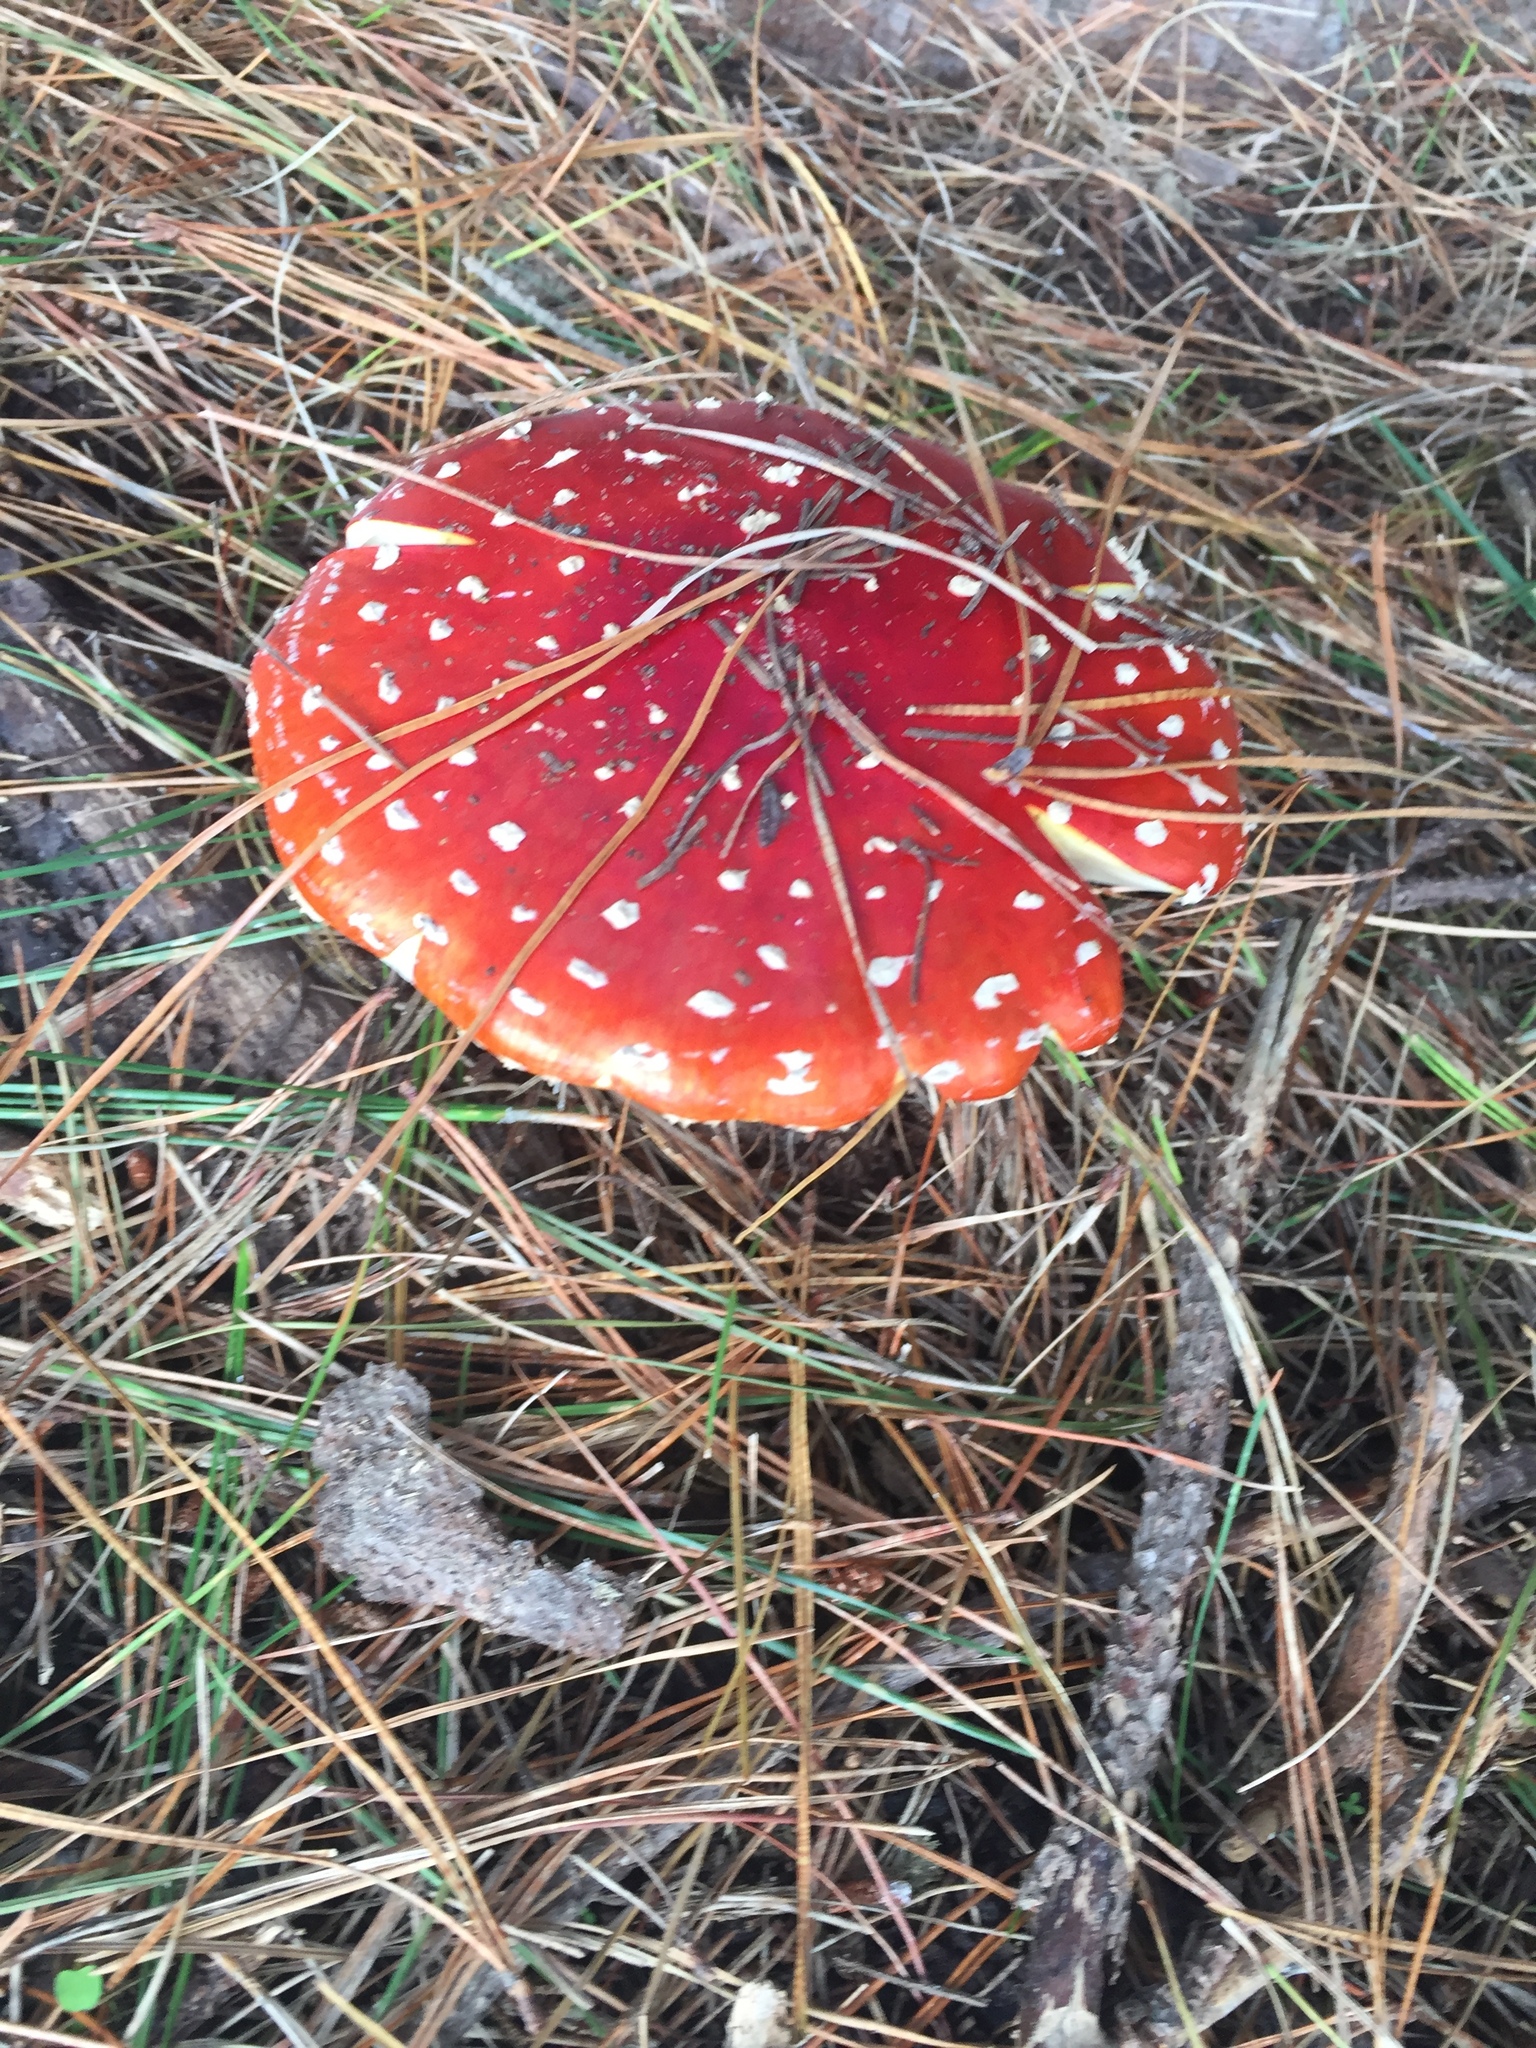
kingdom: Fungi
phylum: Basidiomycota
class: Agaricomycetes
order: Agaricales
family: Amanitaceae
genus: Amanita
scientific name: Amanita muscaria
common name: Fly agaric
